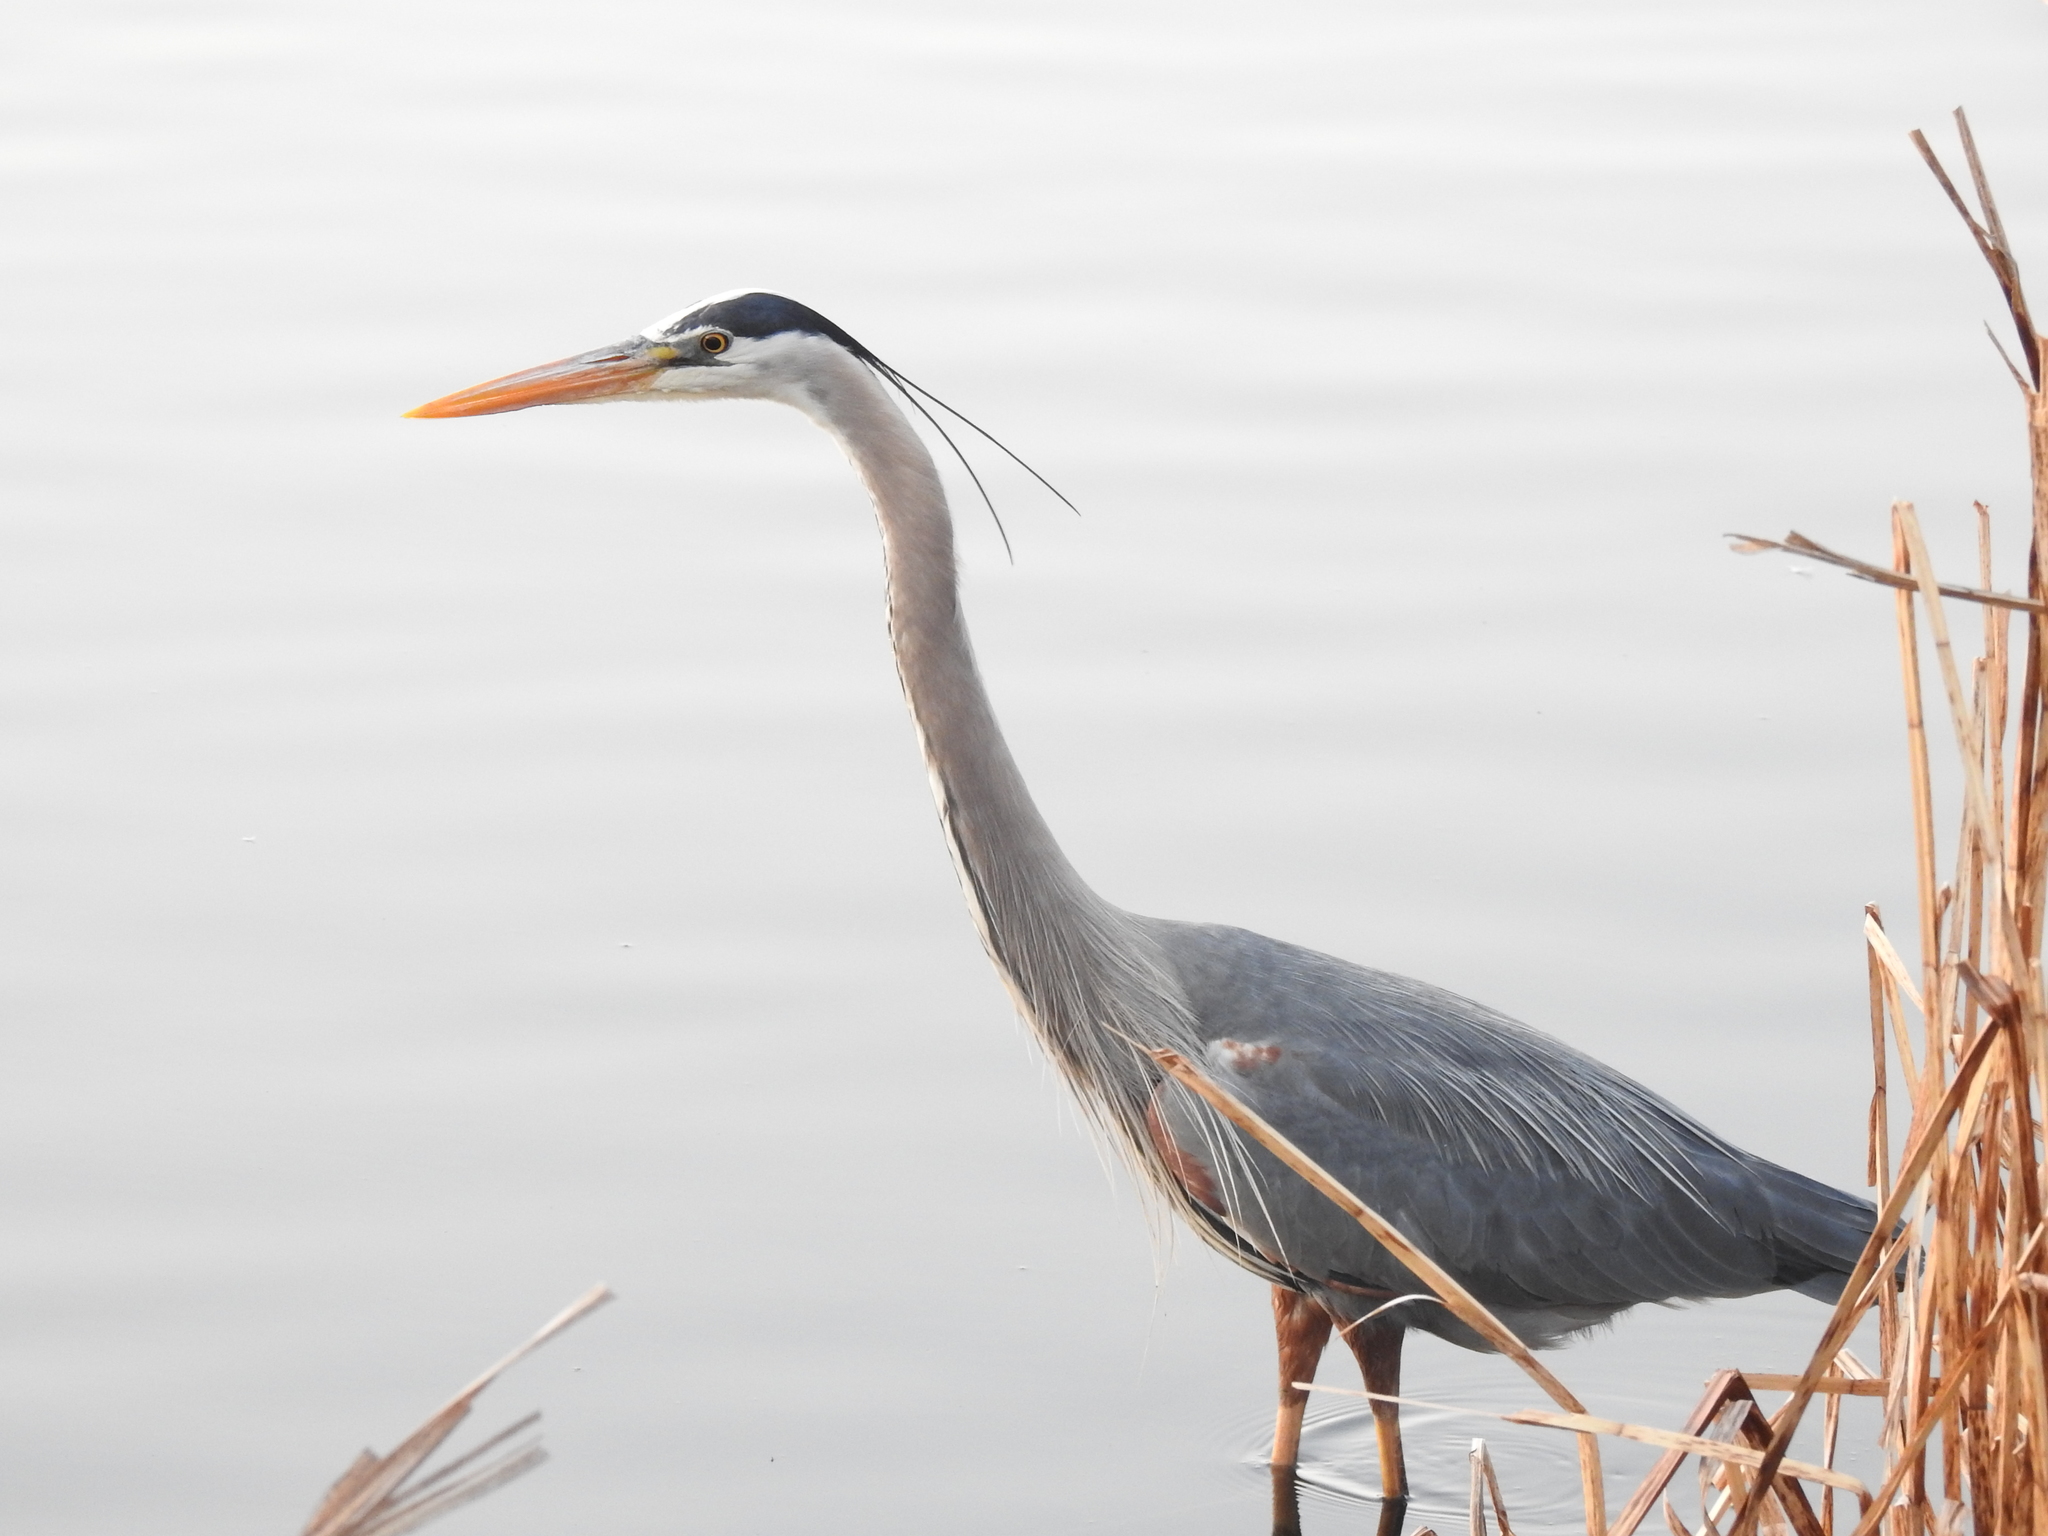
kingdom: Animalia
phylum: Chordata
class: Aves
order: Pelecaniformes
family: Ardeidae
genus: Ardea
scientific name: Ardea herodias
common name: Great blue heron
